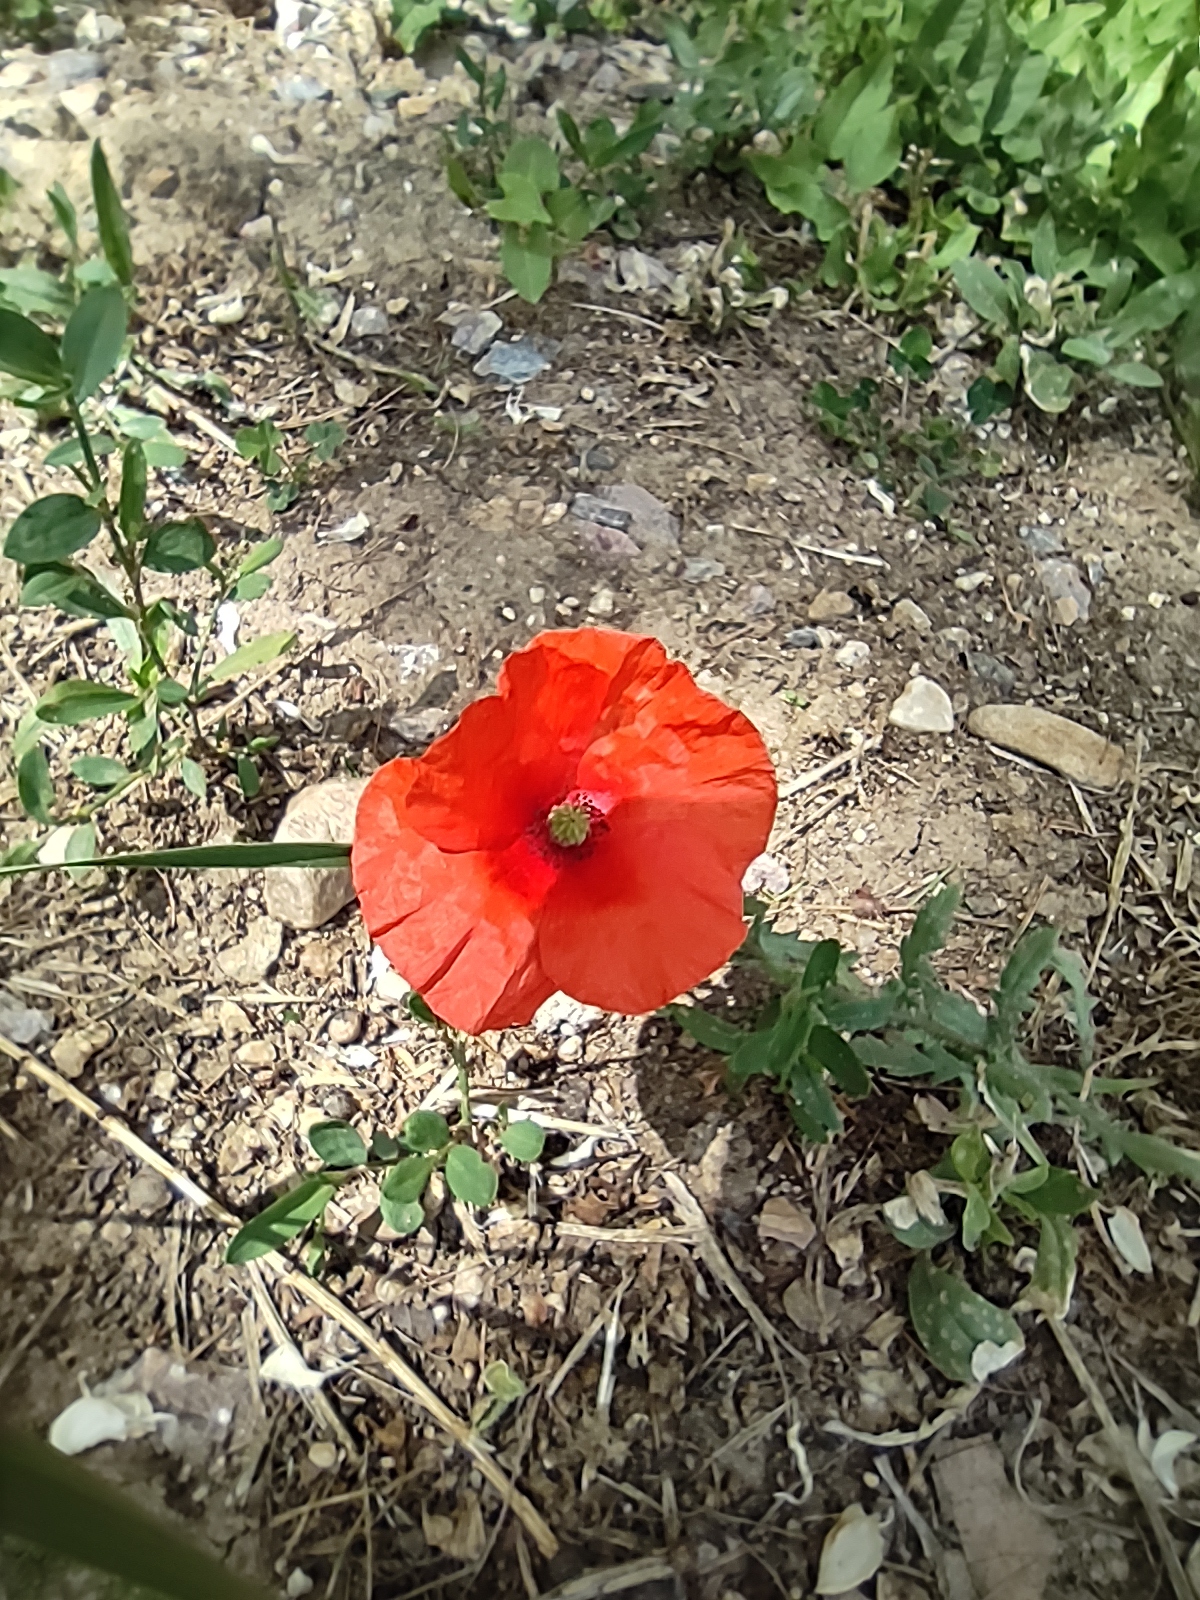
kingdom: Plantae
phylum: Tracheophyta
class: Magnoliopsida
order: Ranunculales
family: Papaveraceae
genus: Papaver
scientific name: Papaver rhoeas
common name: Corn poppy
